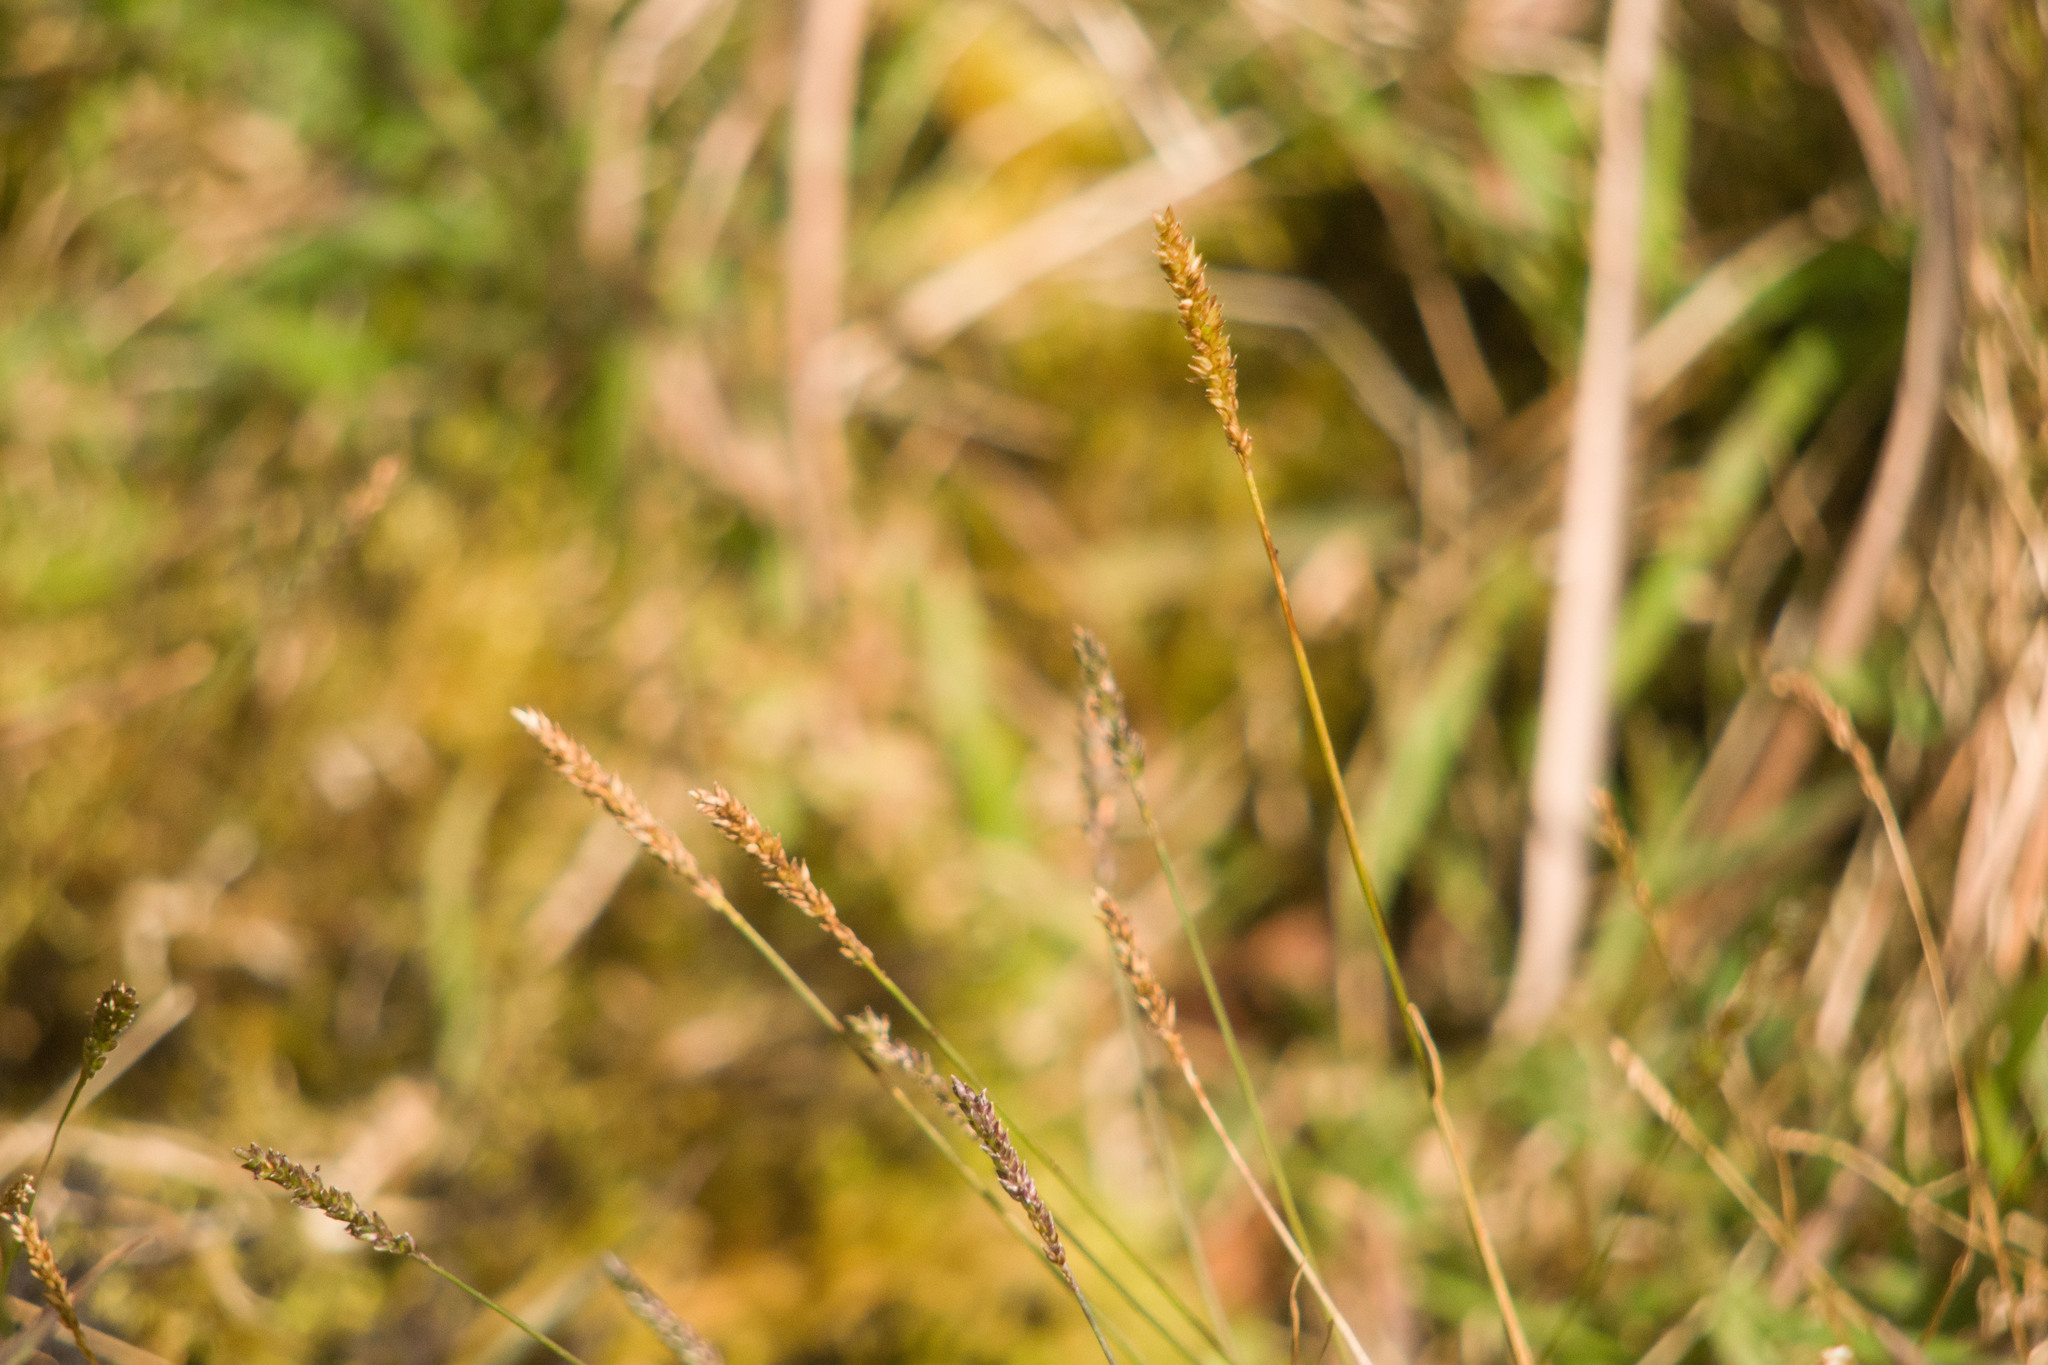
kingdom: Plantae
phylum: Tracheophyta
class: Liliopsida
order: Poales
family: Poaceae
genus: Sacciolepis
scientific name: Sacciolepis indica
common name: Glenwoodgrass
